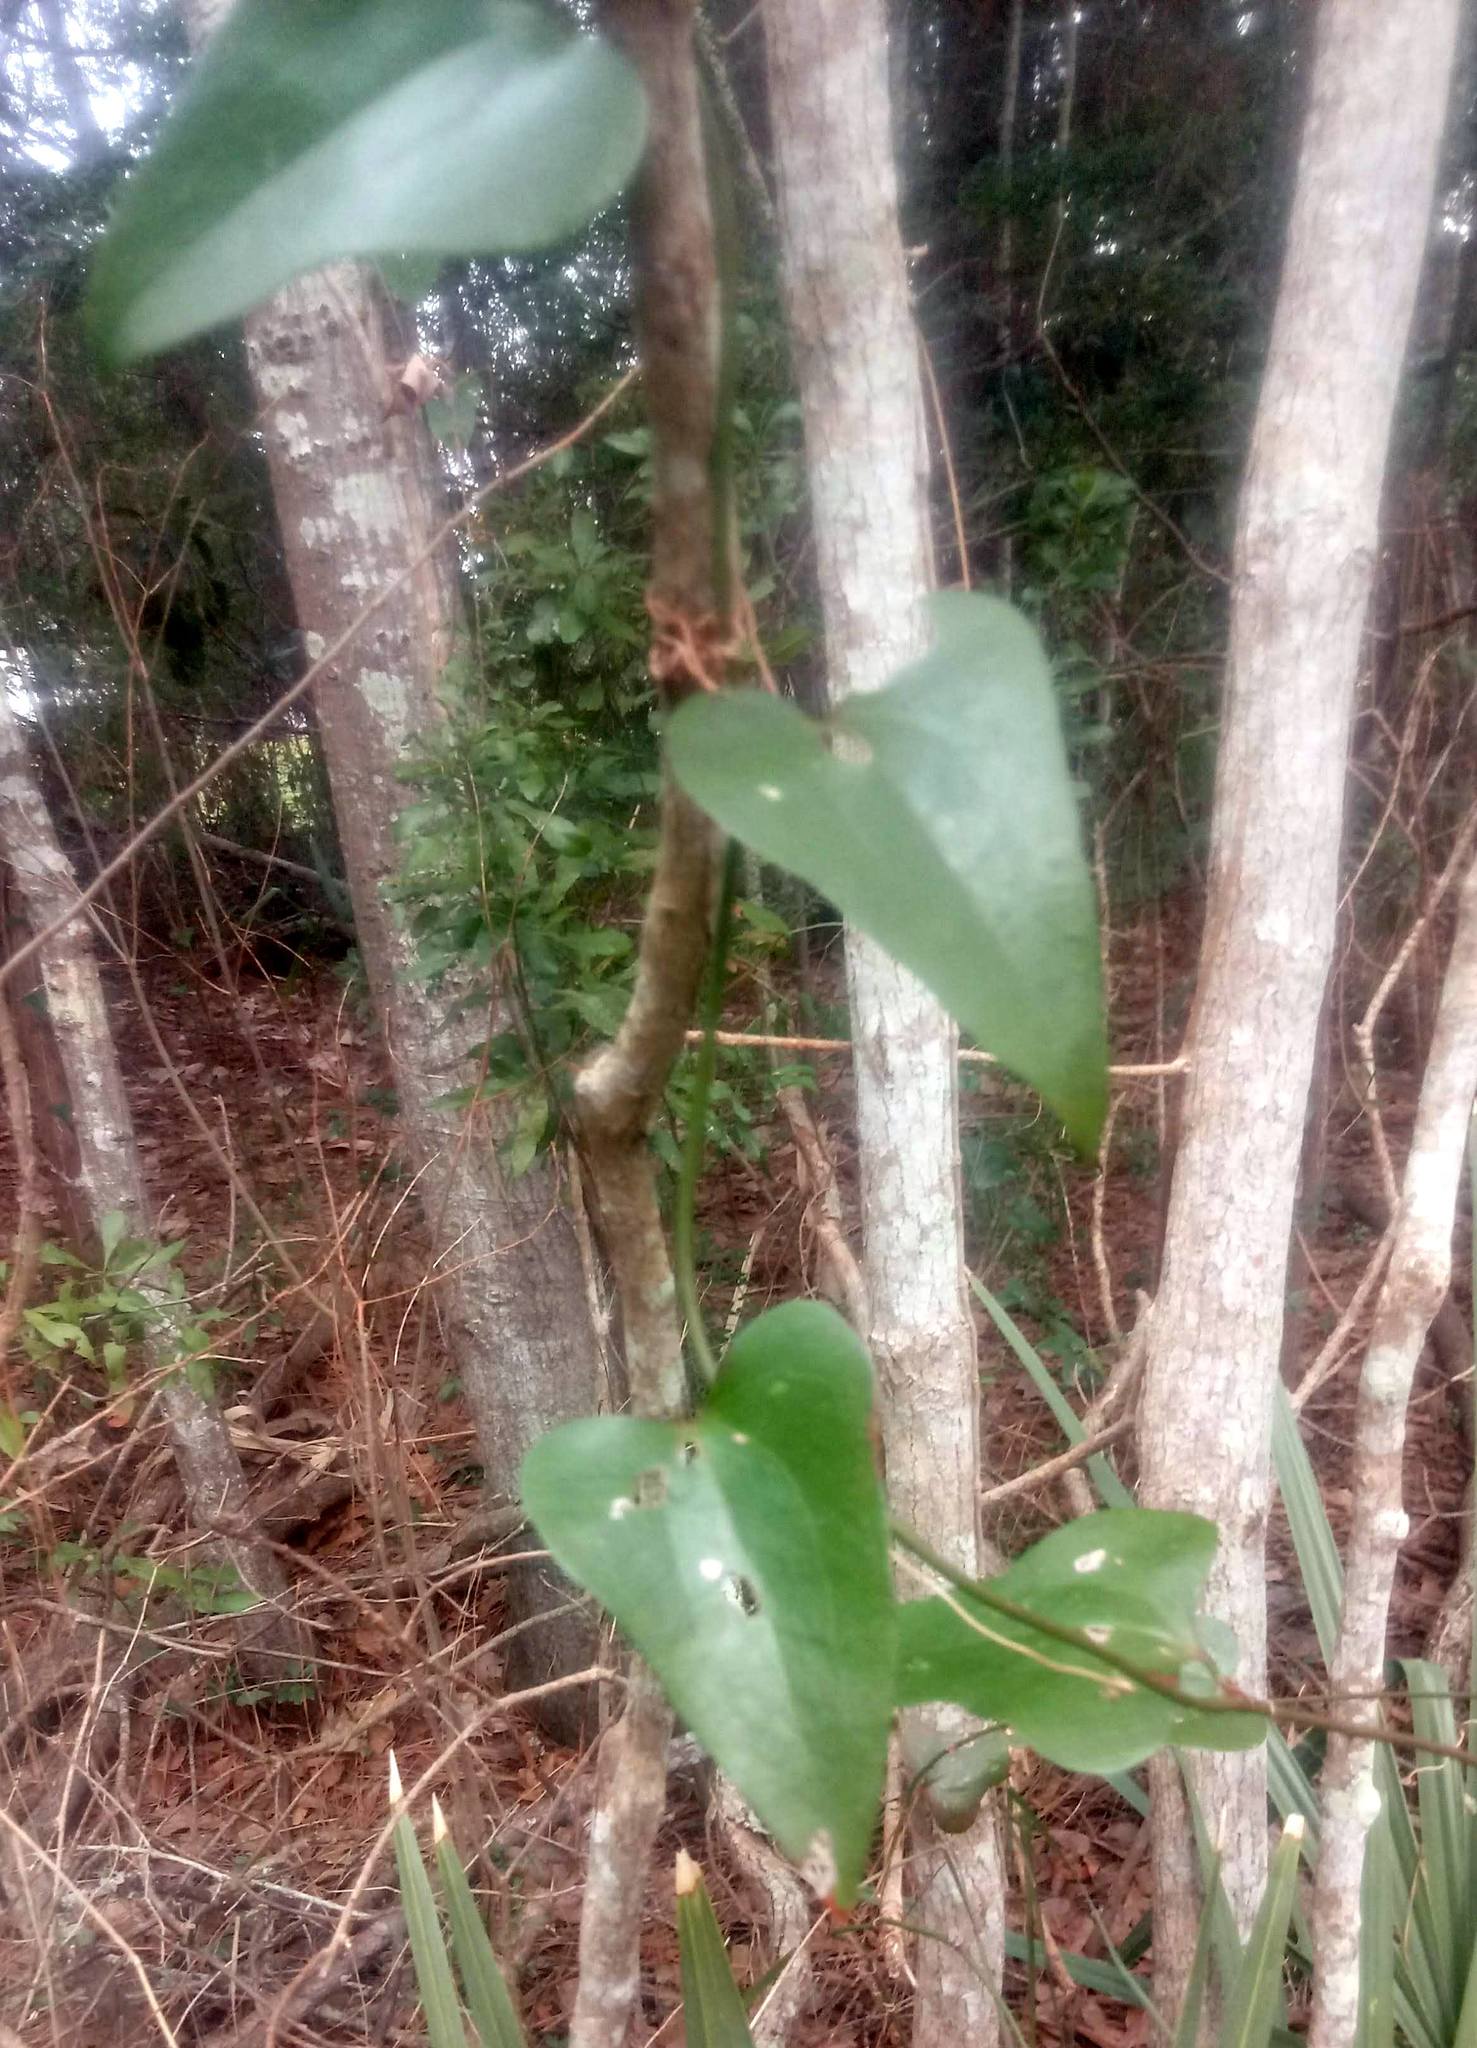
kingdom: Plantae
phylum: Tracheophyta
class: Liliopsida
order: Liliales
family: Smilacaceae
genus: Smilax
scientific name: Smilax bona-nox
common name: Catbrier
